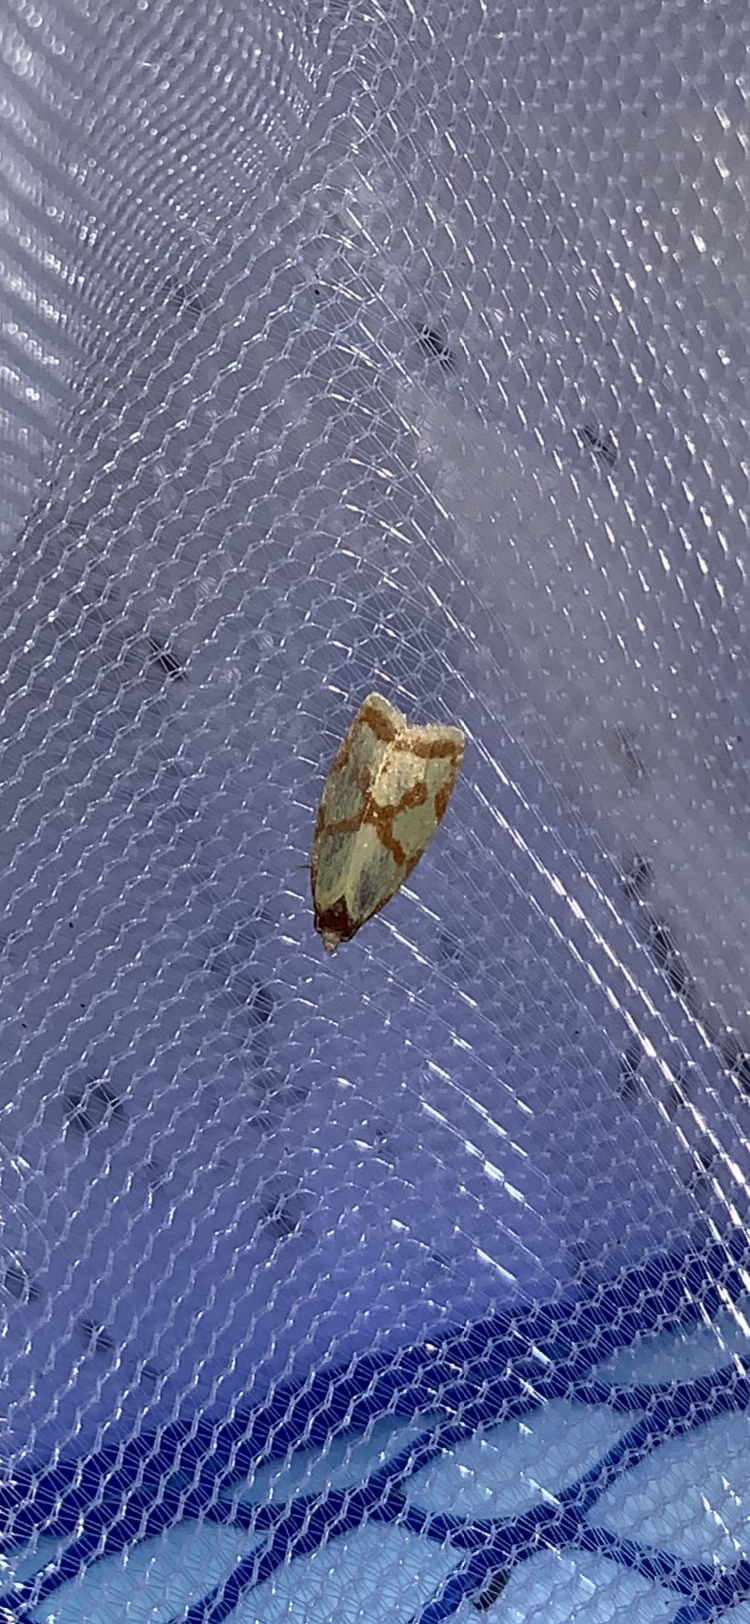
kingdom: Animalia
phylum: Arthropoda
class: Insecta
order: Lepidoptera
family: Tortricidae
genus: Sparganothis
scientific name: Sparganothis sulfureana
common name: Sparganothis fruitworm moth
